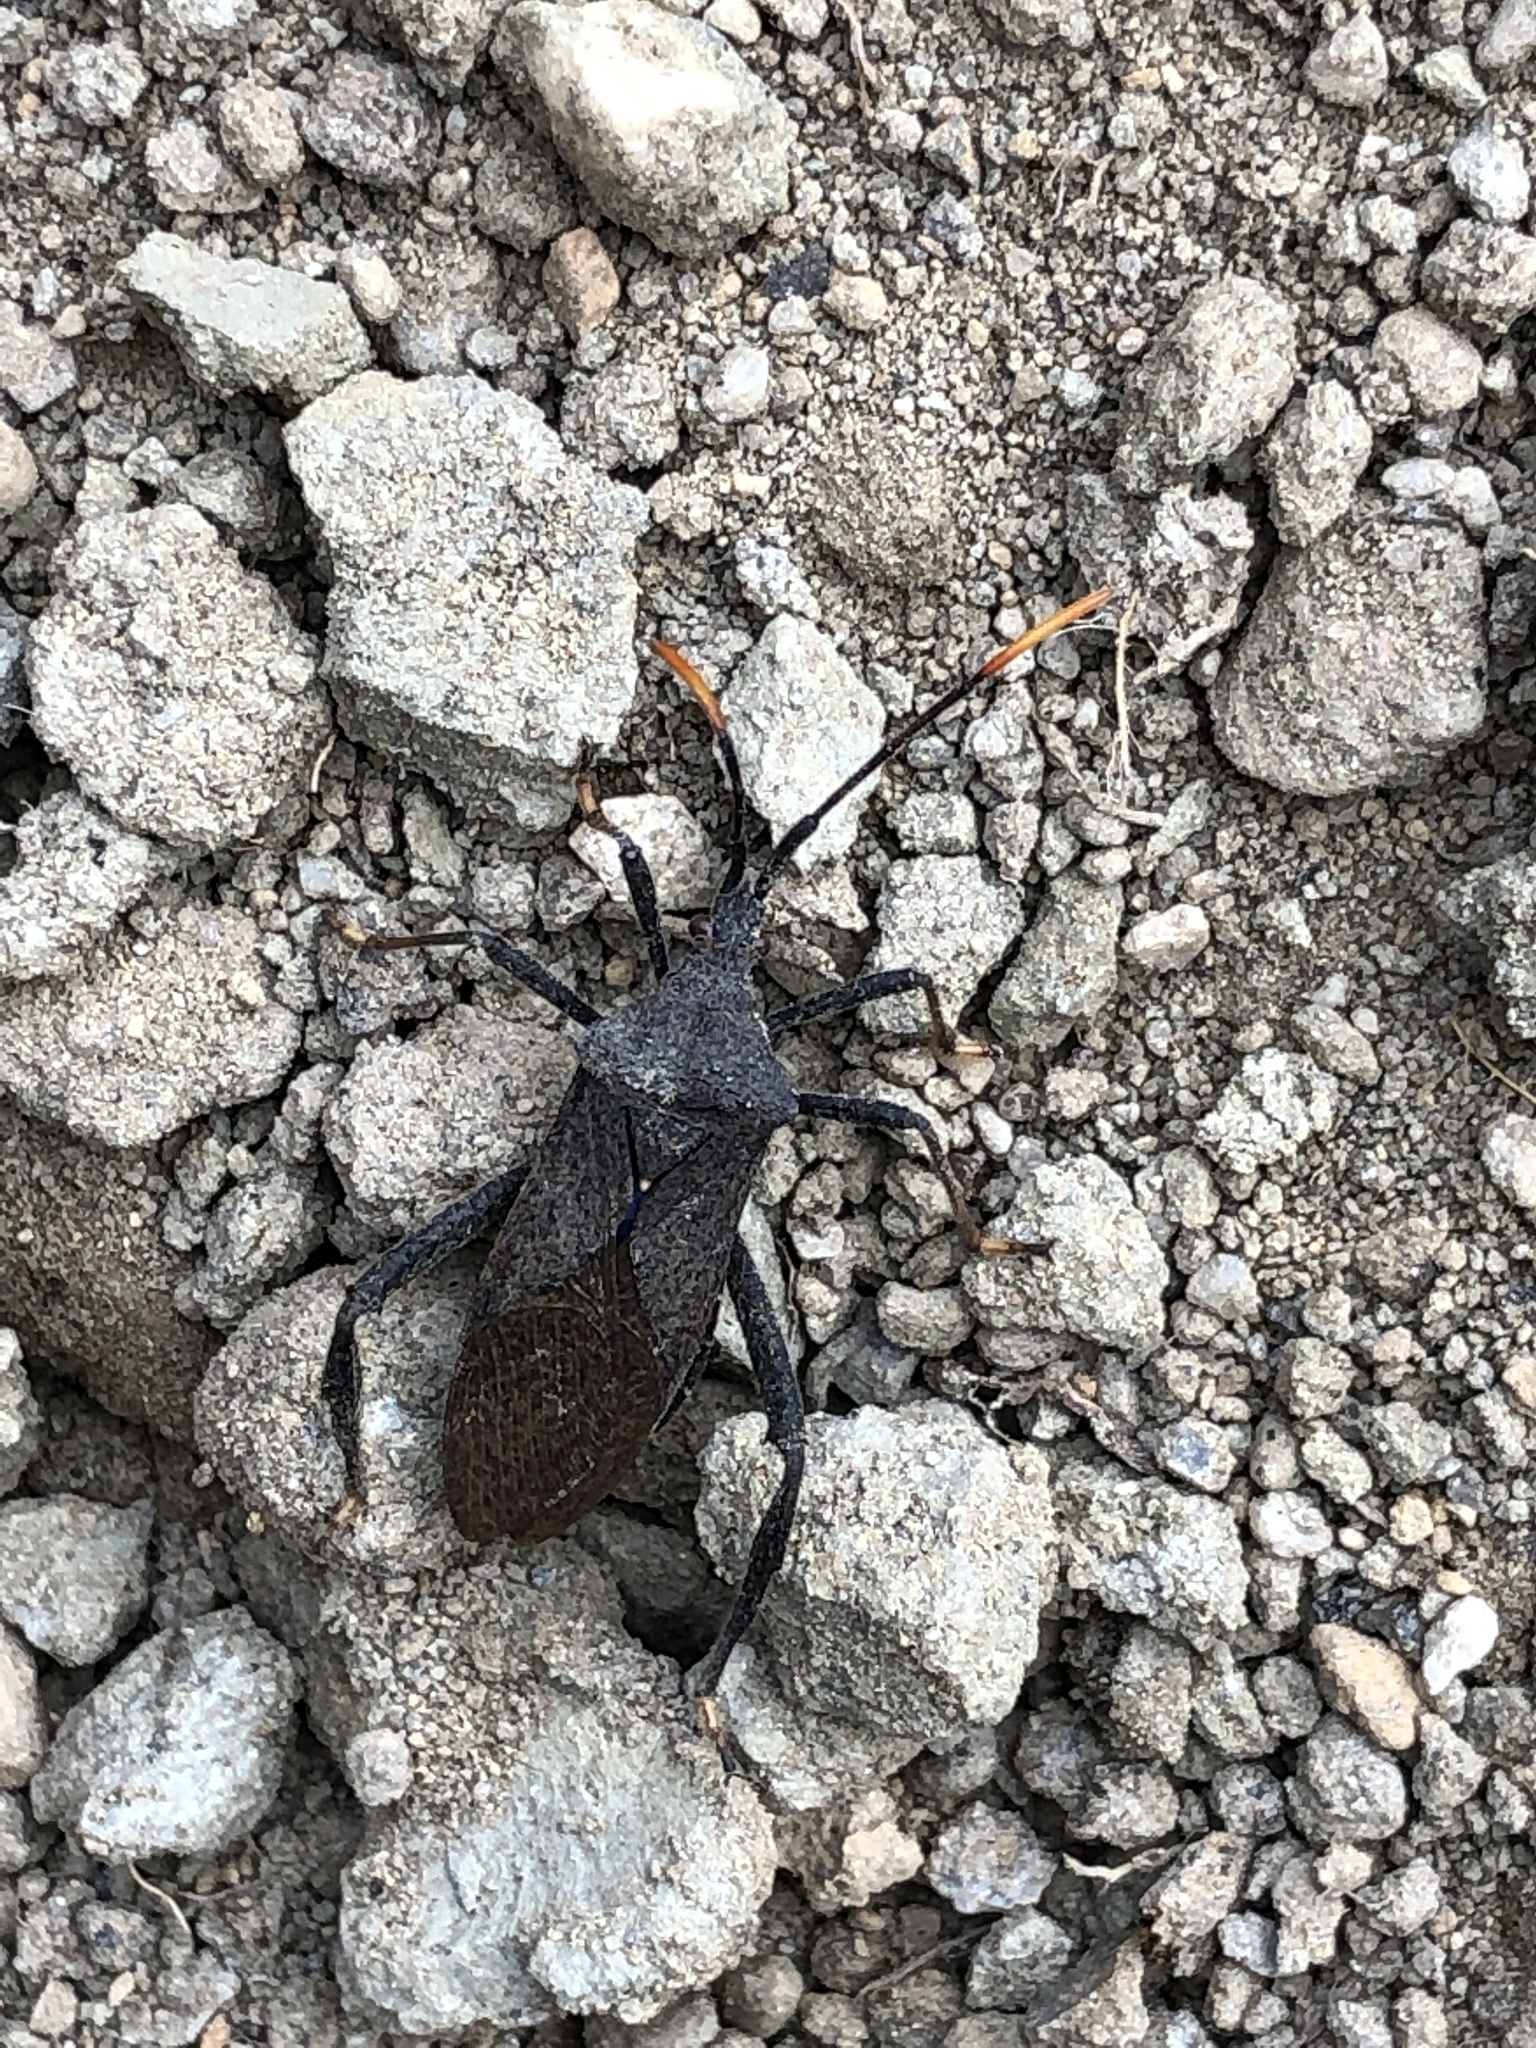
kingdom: Animalia
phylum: Arthropoda
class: Insecta
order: Hemiptera
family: Coreidae
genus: Acanthocephala
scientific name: Acanthocephala terminalis
